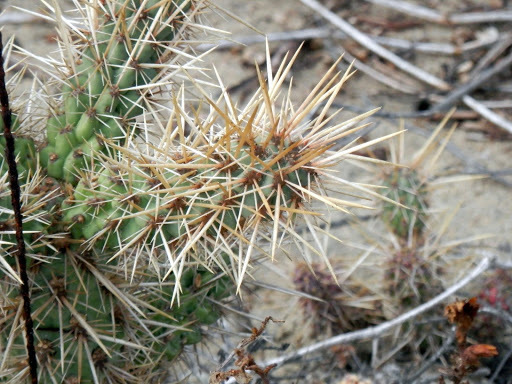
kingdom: Plantae
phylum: Tracheophyta
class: Magnoliopsida
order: Caryophyllales
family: Cactaceae
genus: Cylindropuntia
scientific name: Cylindropuntia prolifera
